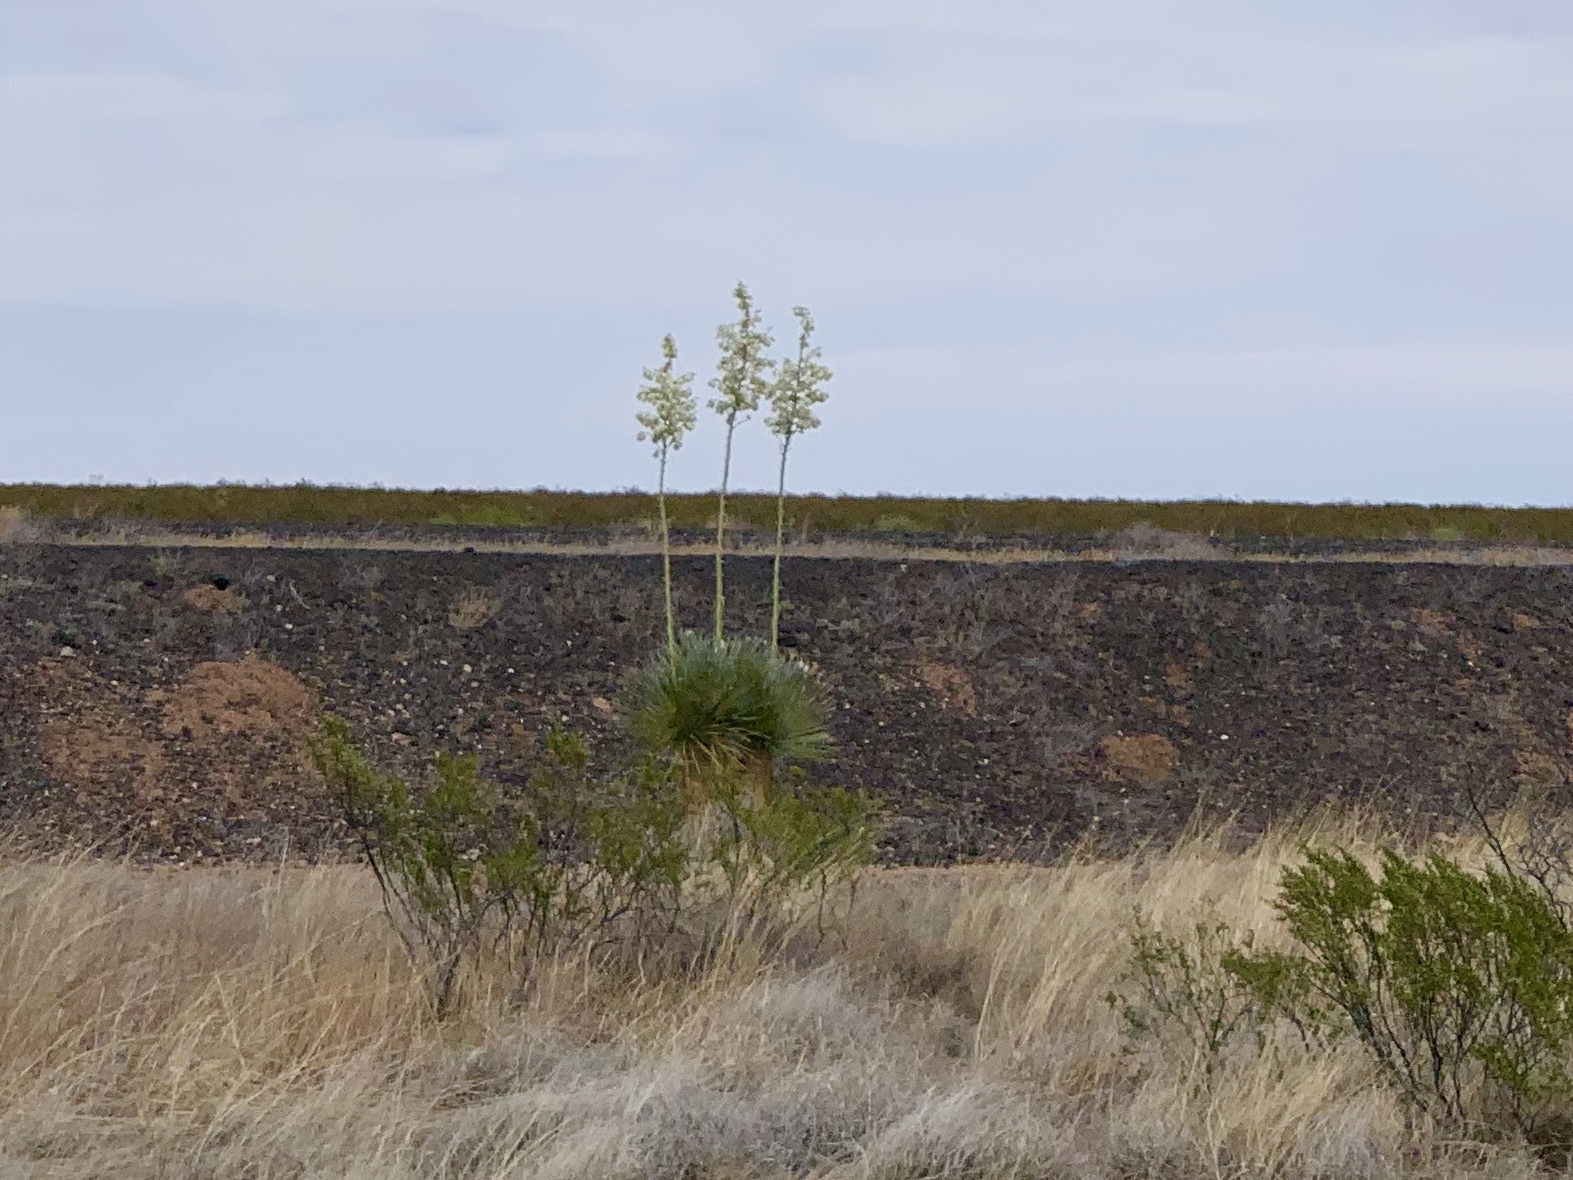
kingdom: Plantae
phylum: Tracheophyta
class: Liliopsida
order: Asparagales
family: Asparagaceae
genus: Yucca
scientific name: Yucca elata
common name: Palmella
